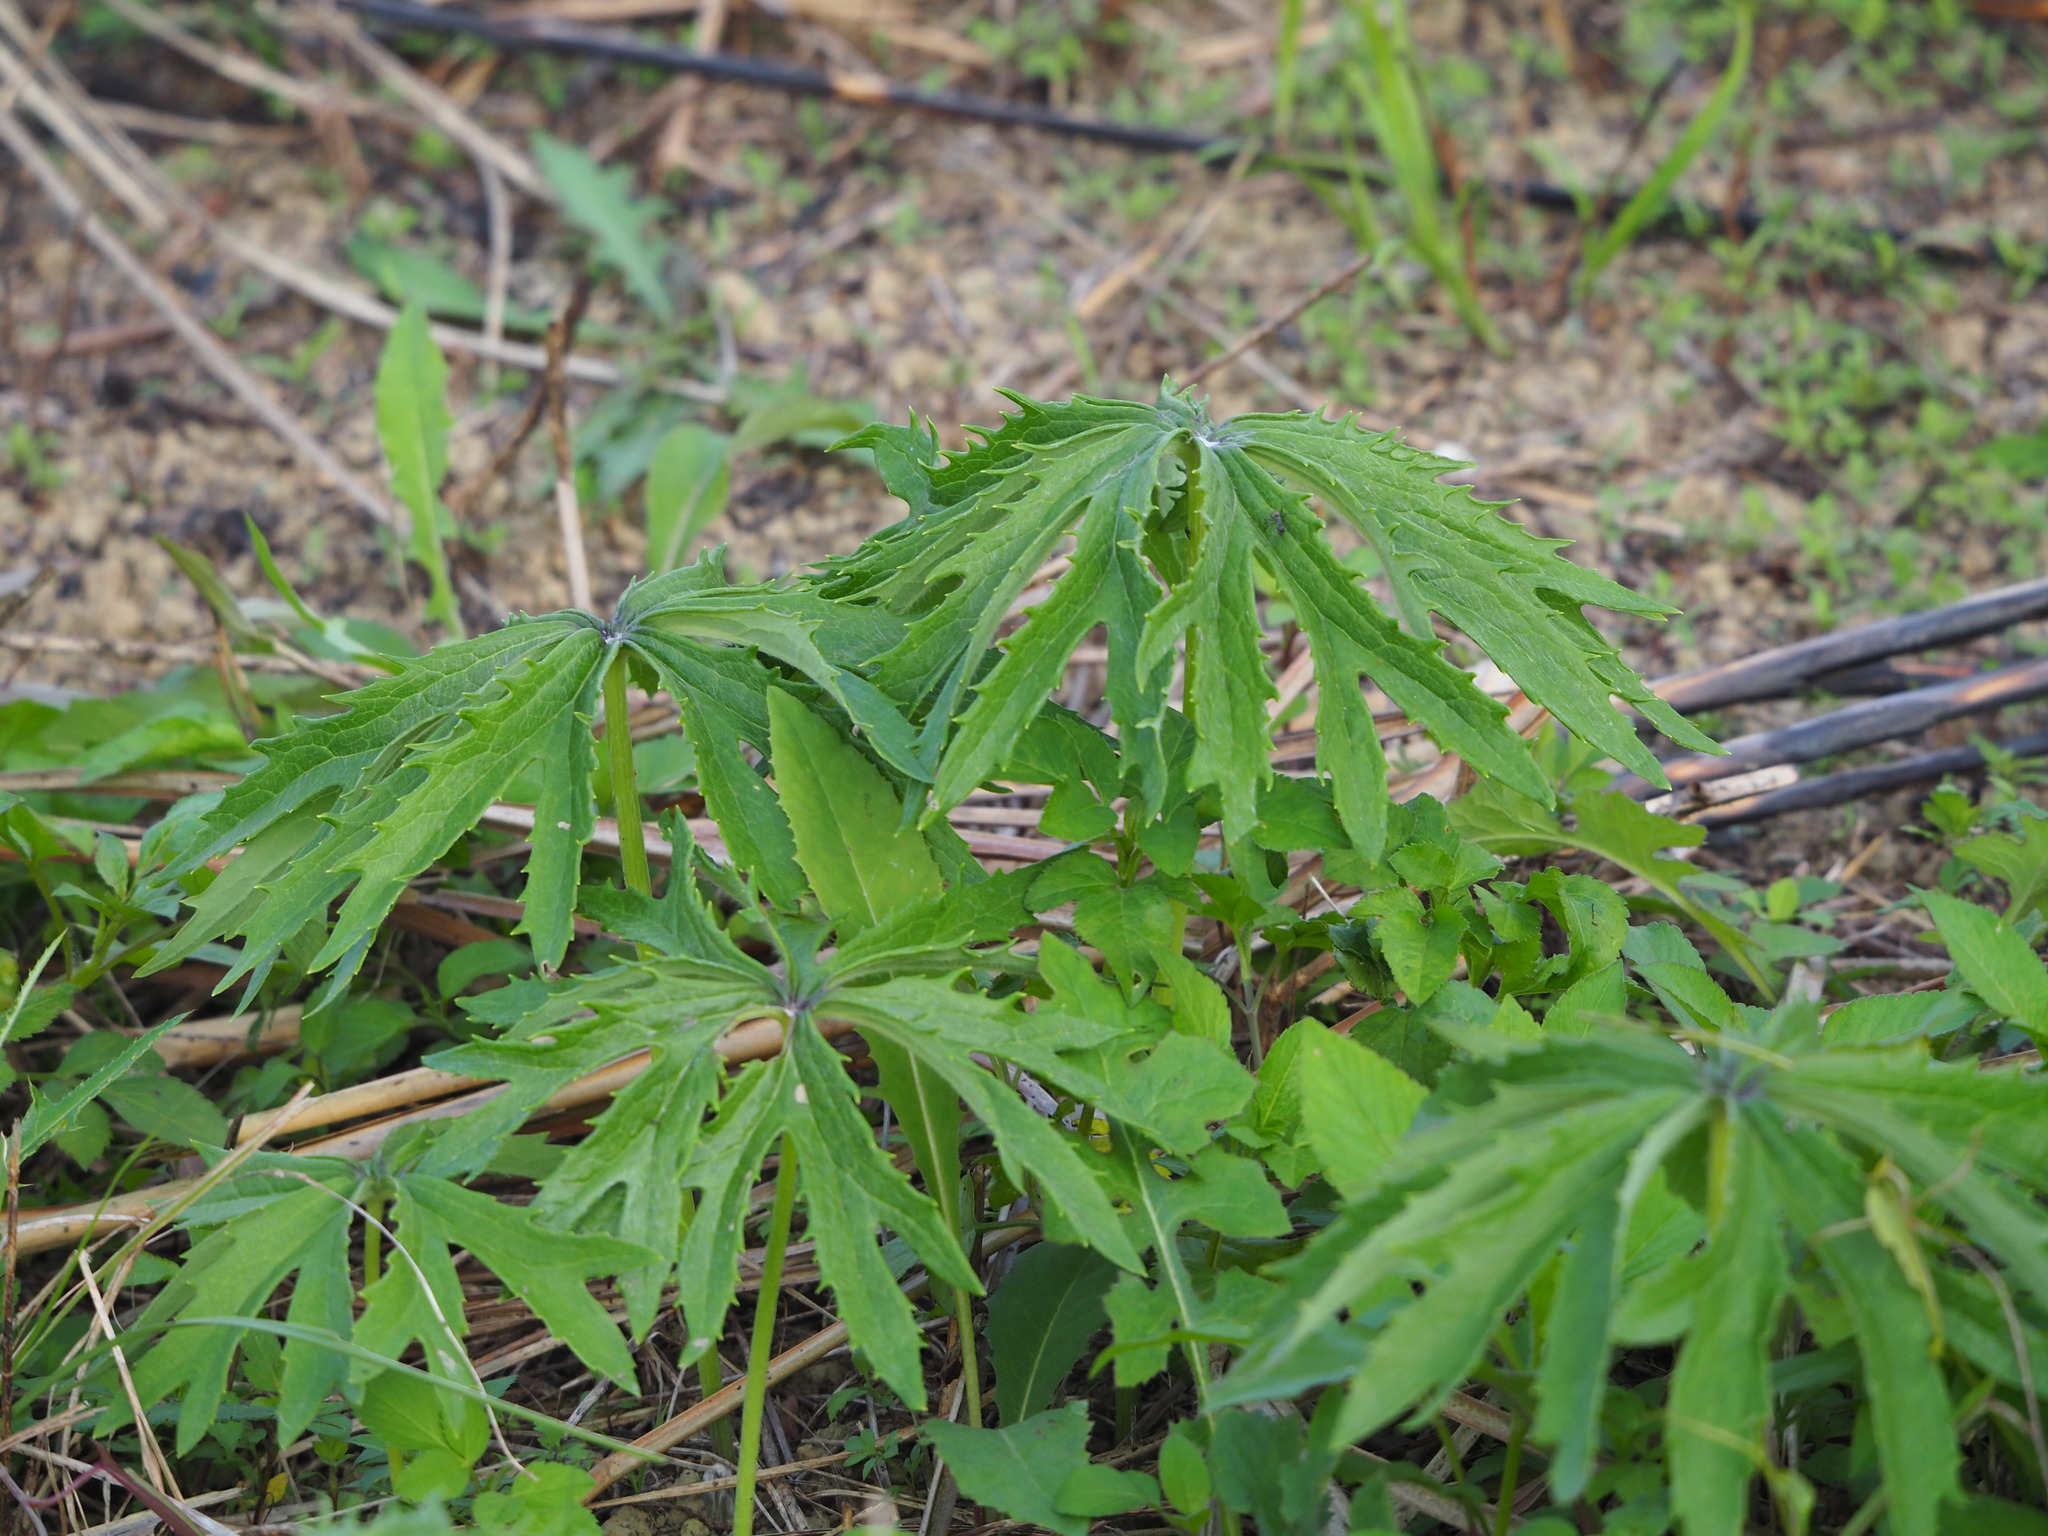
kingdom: Plantae
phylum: Tracheophyta
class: Magnoliopsida
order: Asterales
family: Asteraceae
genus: Syneilesis
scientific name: Syneilesis hayatae
